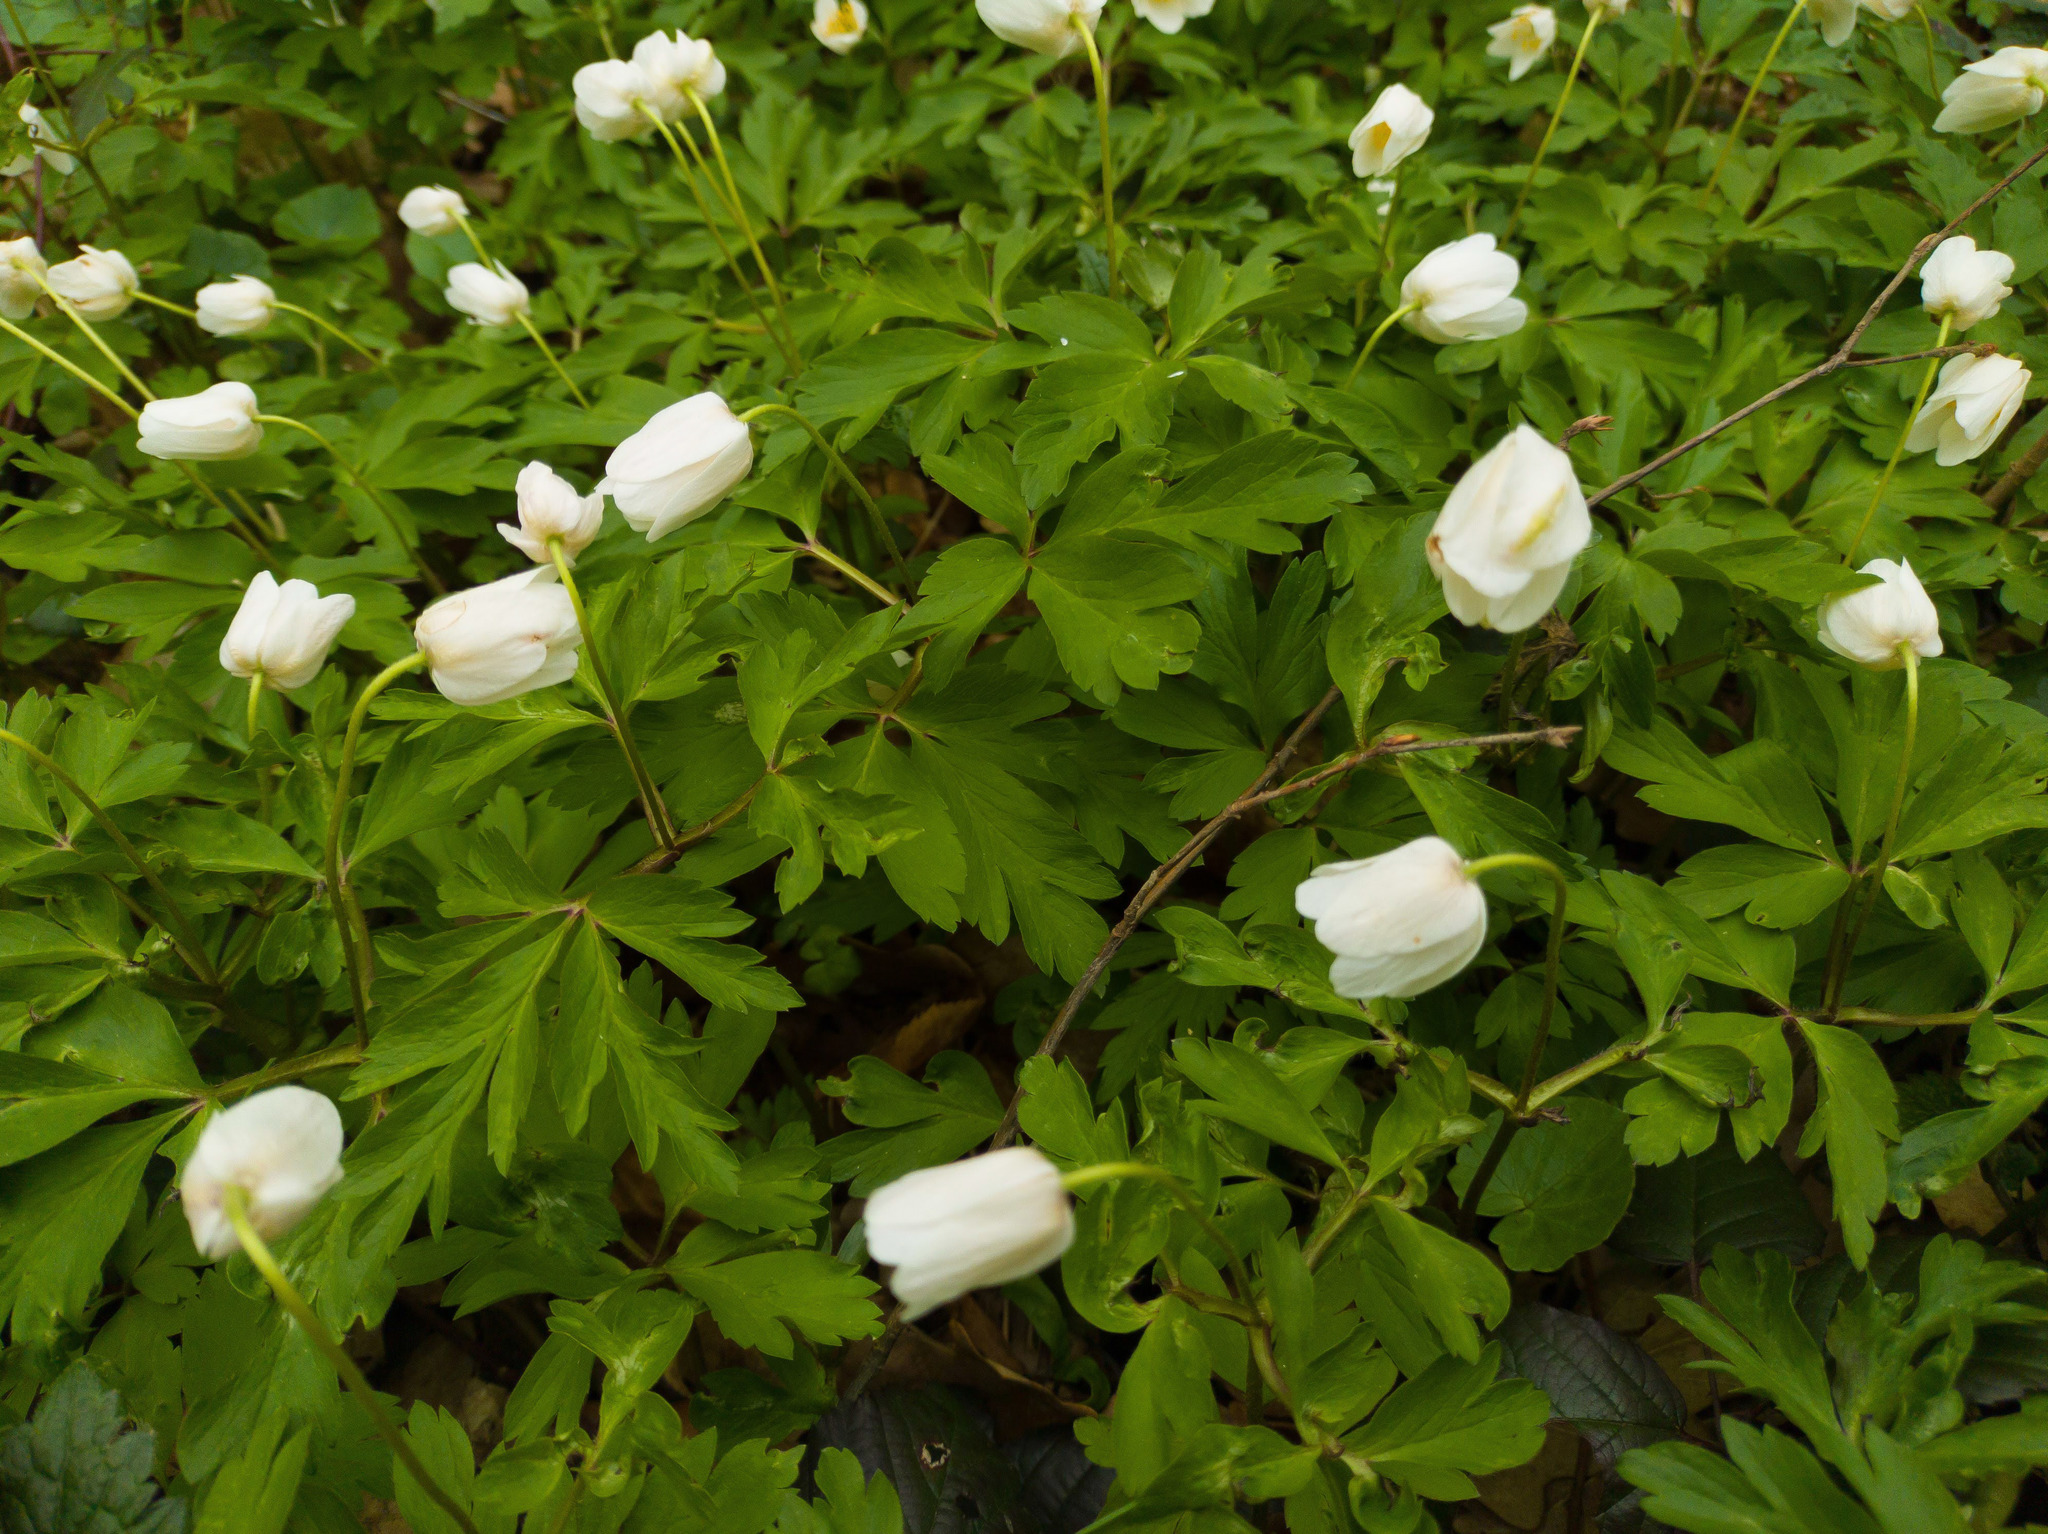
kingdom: Plantae
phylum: Tracheophyta
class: Magnoliopsida
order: Ranunculales
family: Ranunculaceae
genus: Anemone
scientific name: Anemone nemorosa
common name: Wood anemone
